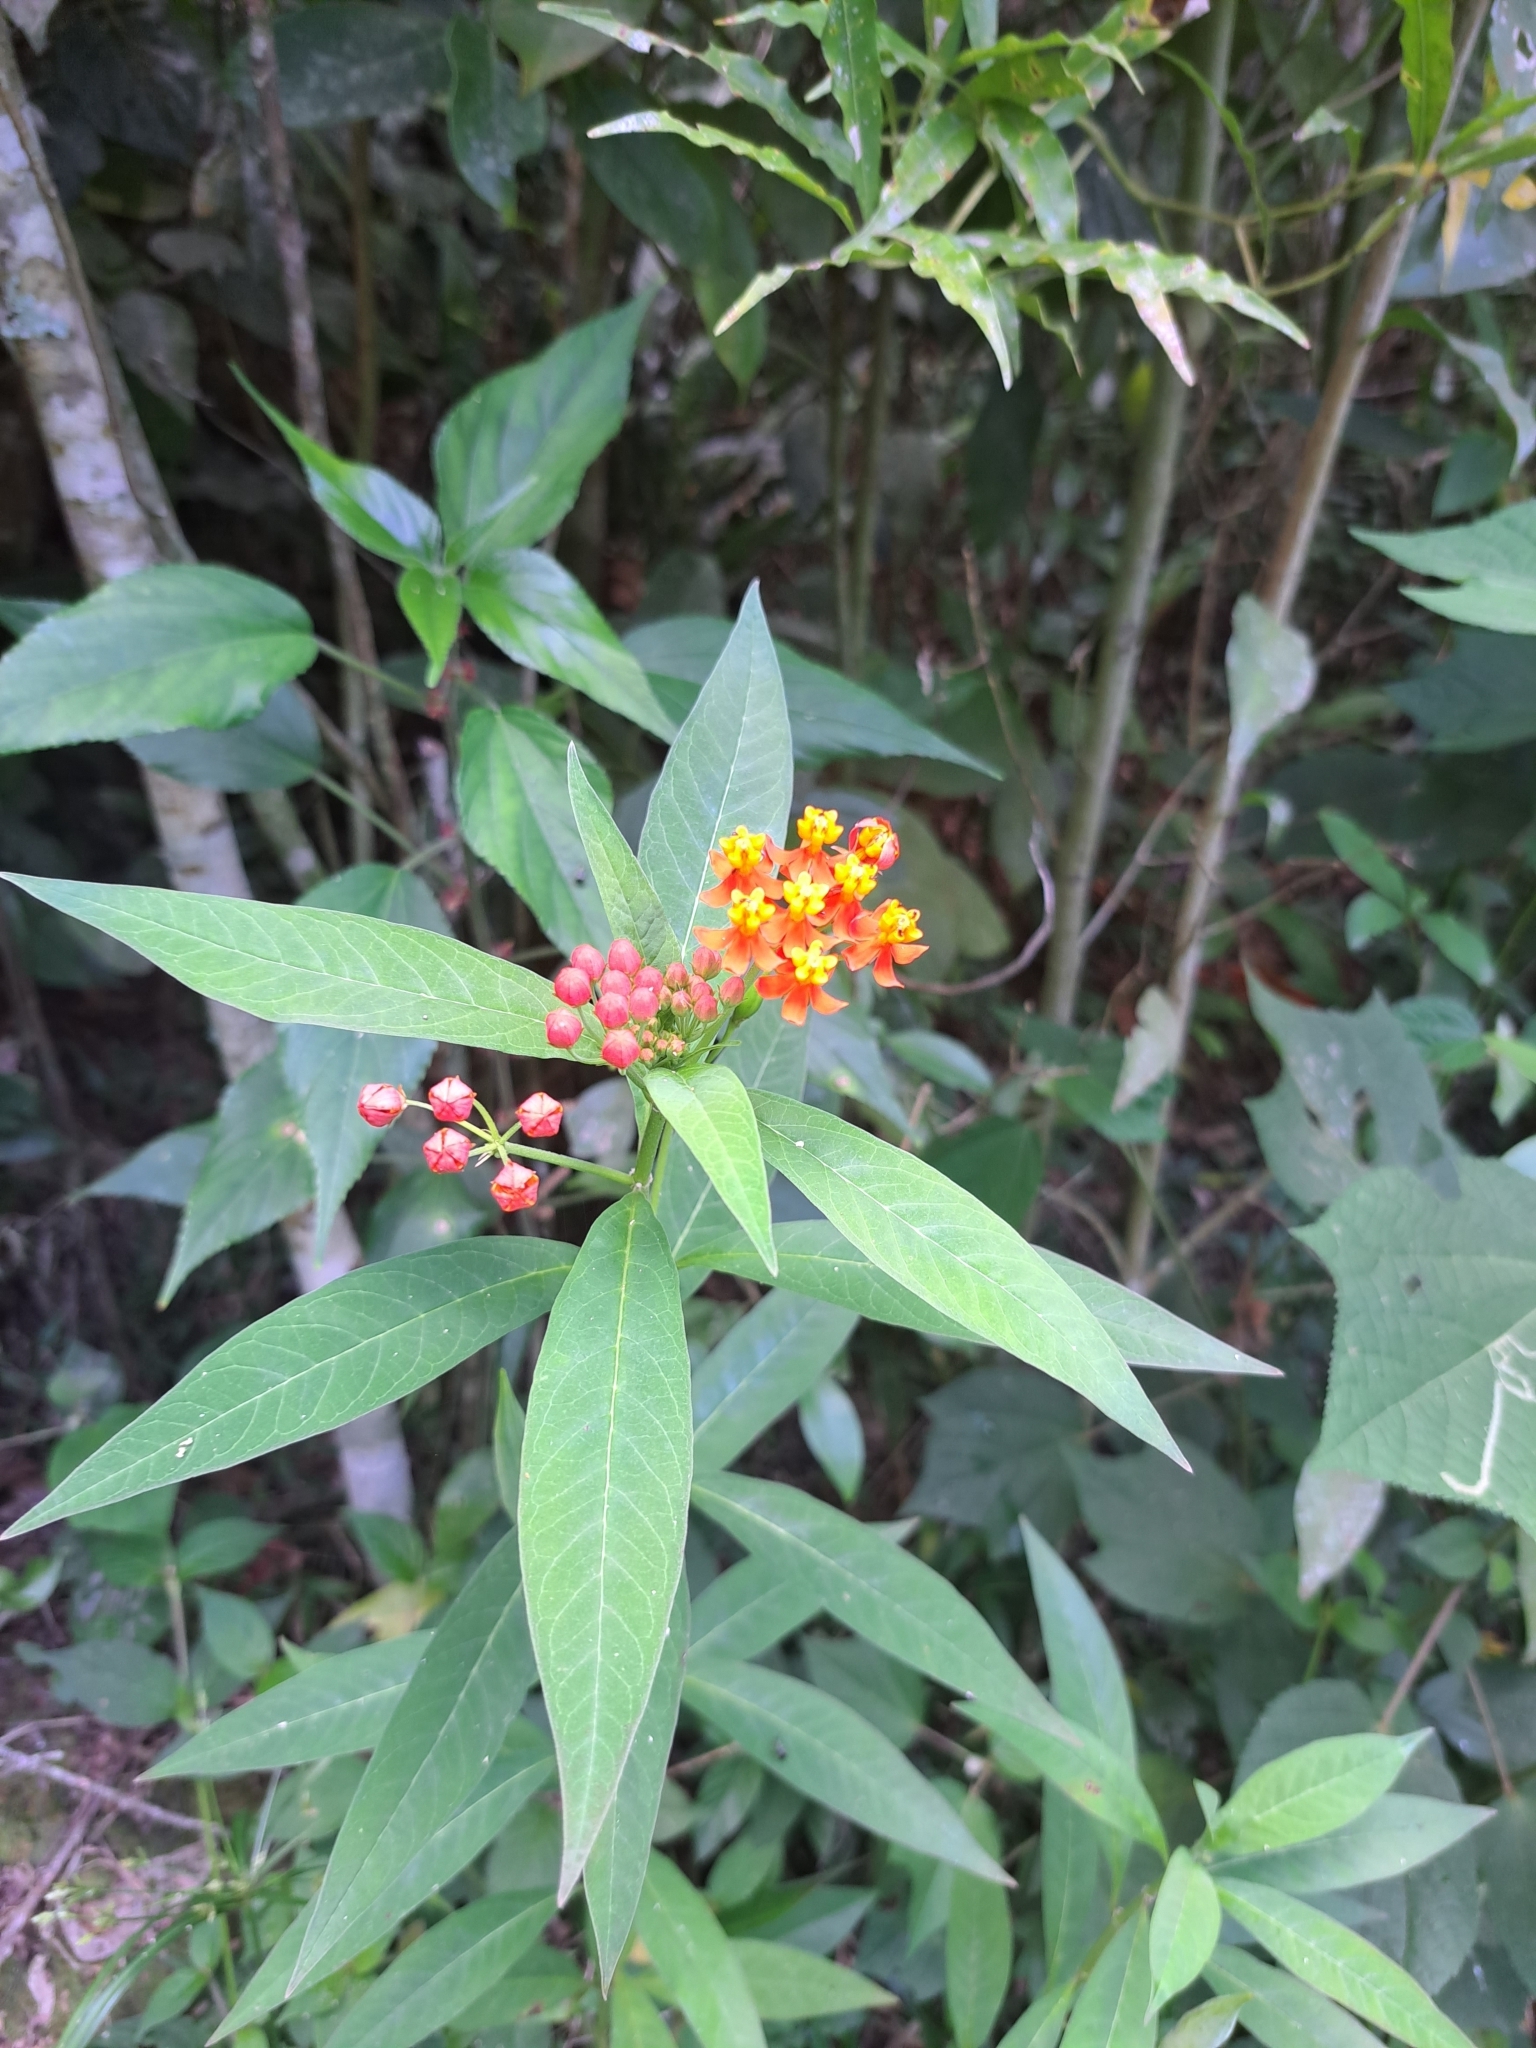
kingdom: Plantae
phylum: Tracheophyta
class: Magnoliopsida
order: Gentianales
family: Apocynaceae
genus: Asclepias
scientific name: Asclepias curassavica
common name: Bloodflower
